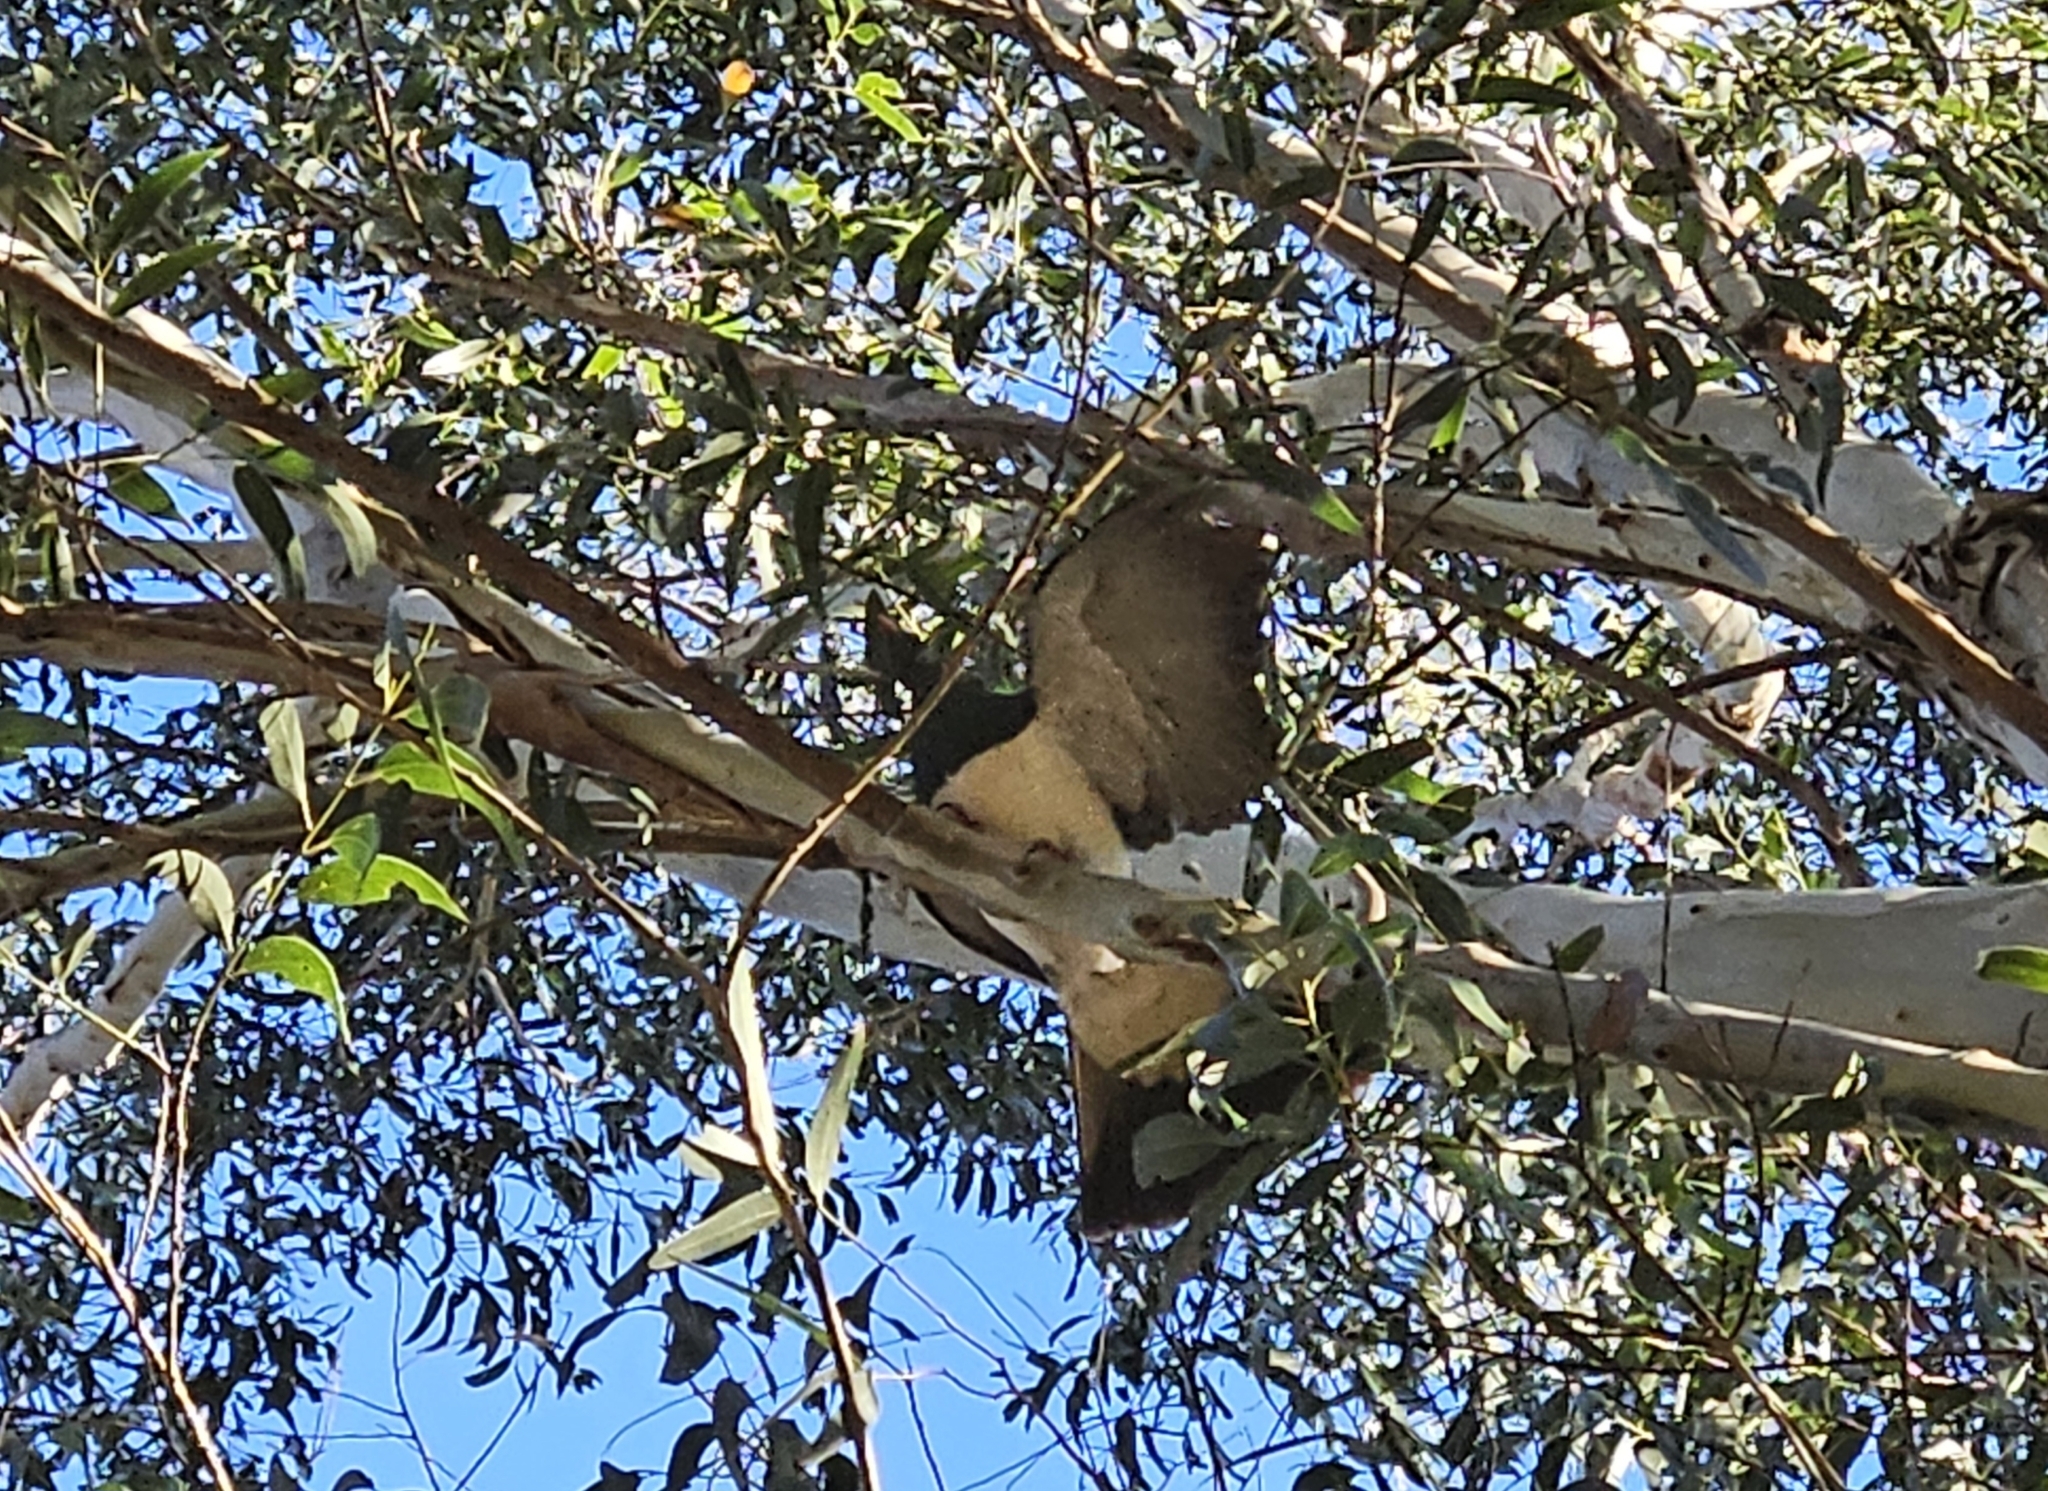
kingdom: Animalia
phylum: Chordata
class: Aves
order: Columbiformes
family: Columbidae
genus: Hemiphaga
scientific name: Hemiphaga novaeseelandiae
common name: New zealand pigeon
